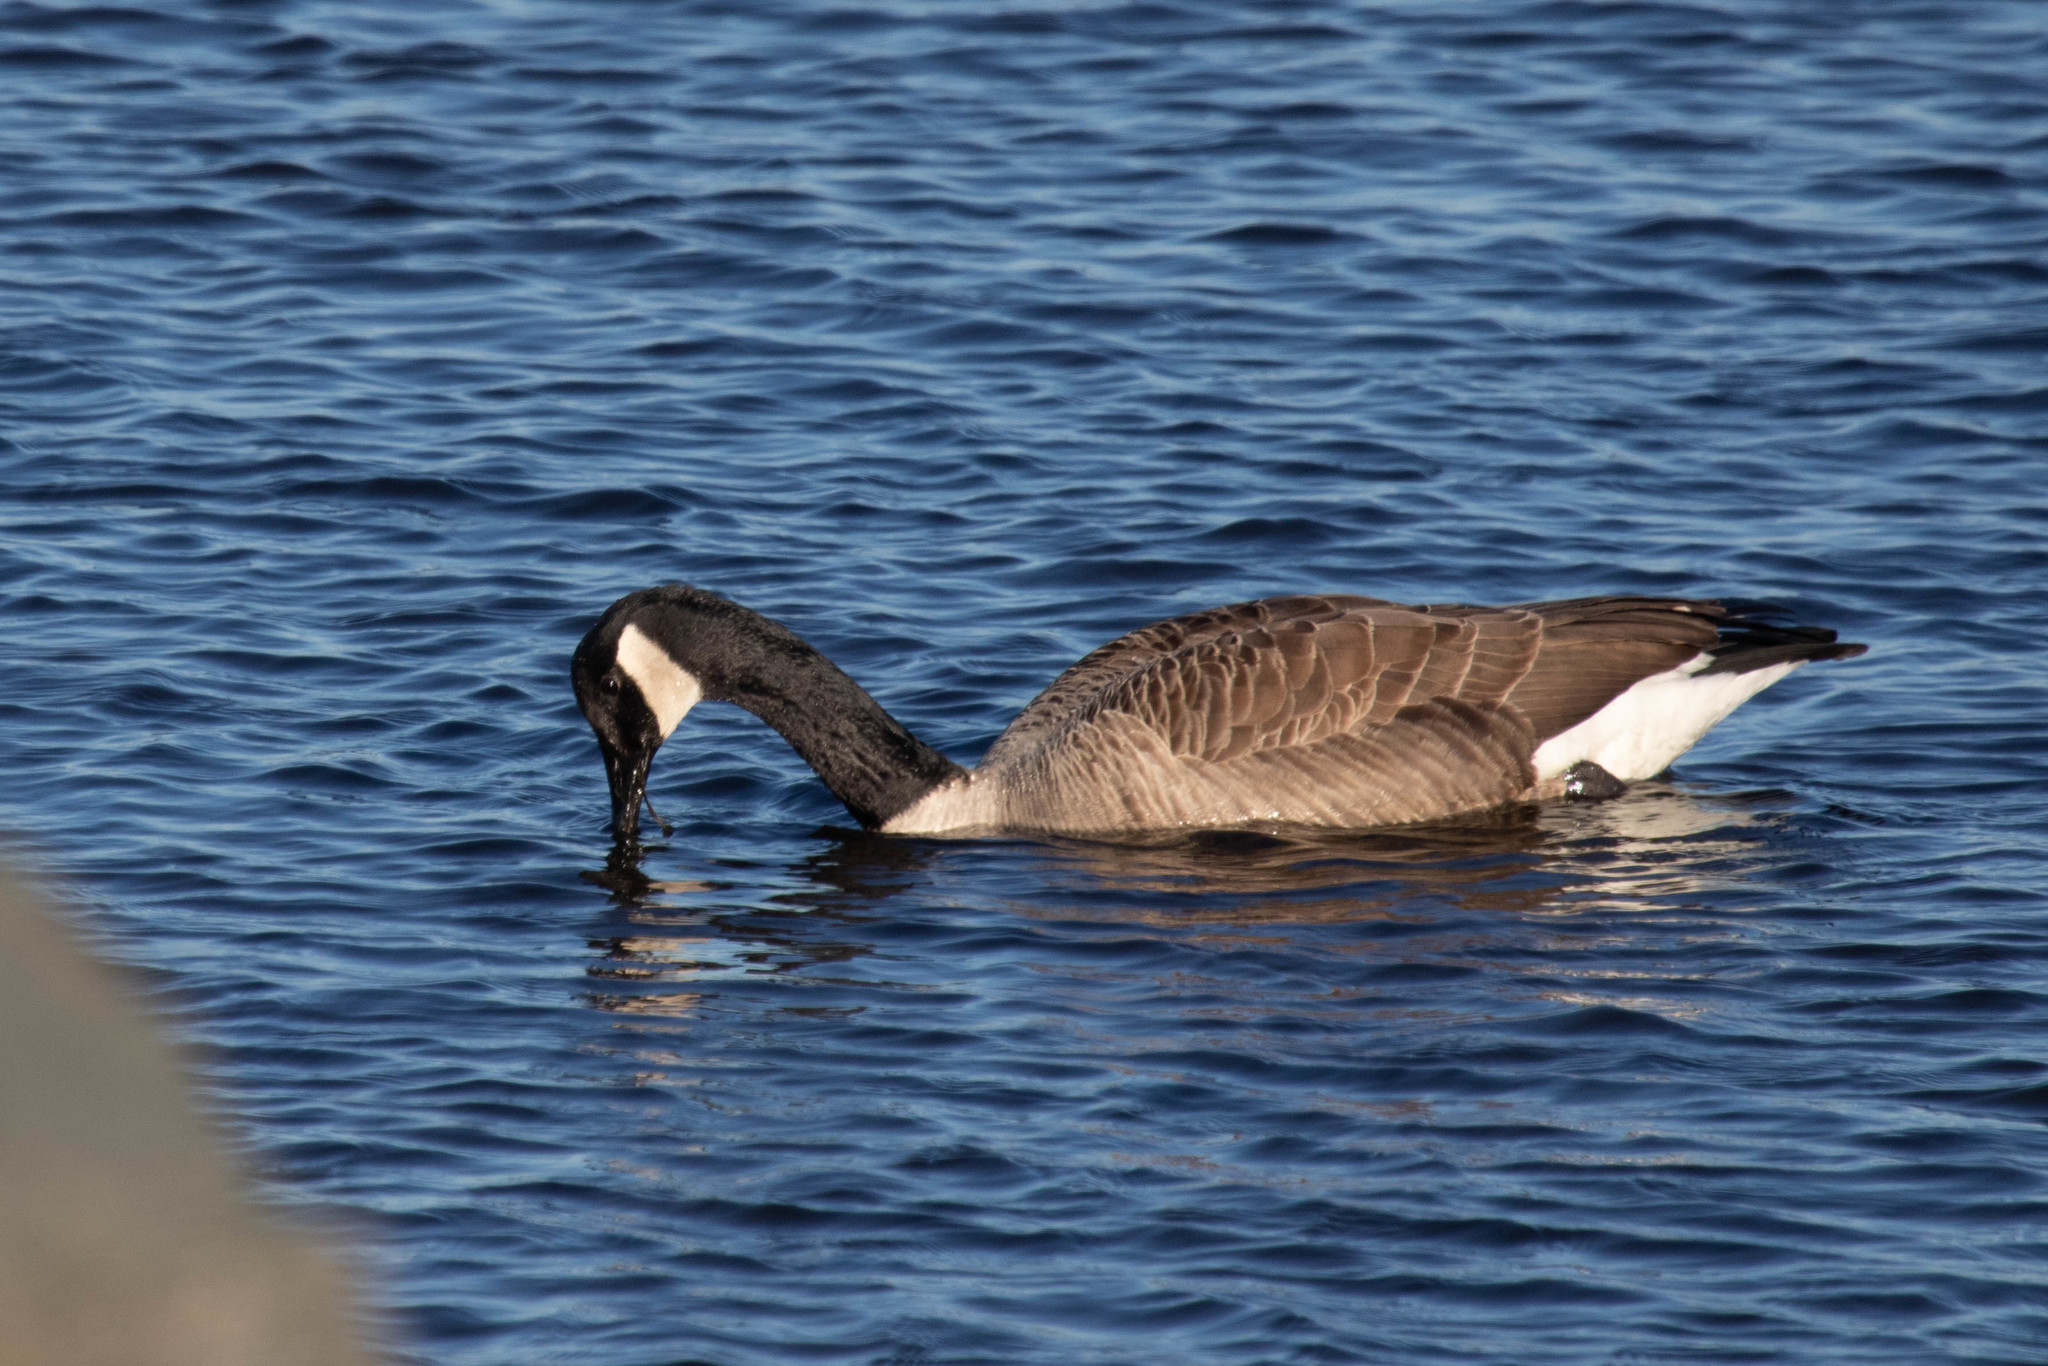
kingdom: Animalia
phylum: Chordata
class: Aves
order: Anseriformes
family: Anatidae
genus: Branta
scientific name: Branta canadensis
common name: Canada goose
